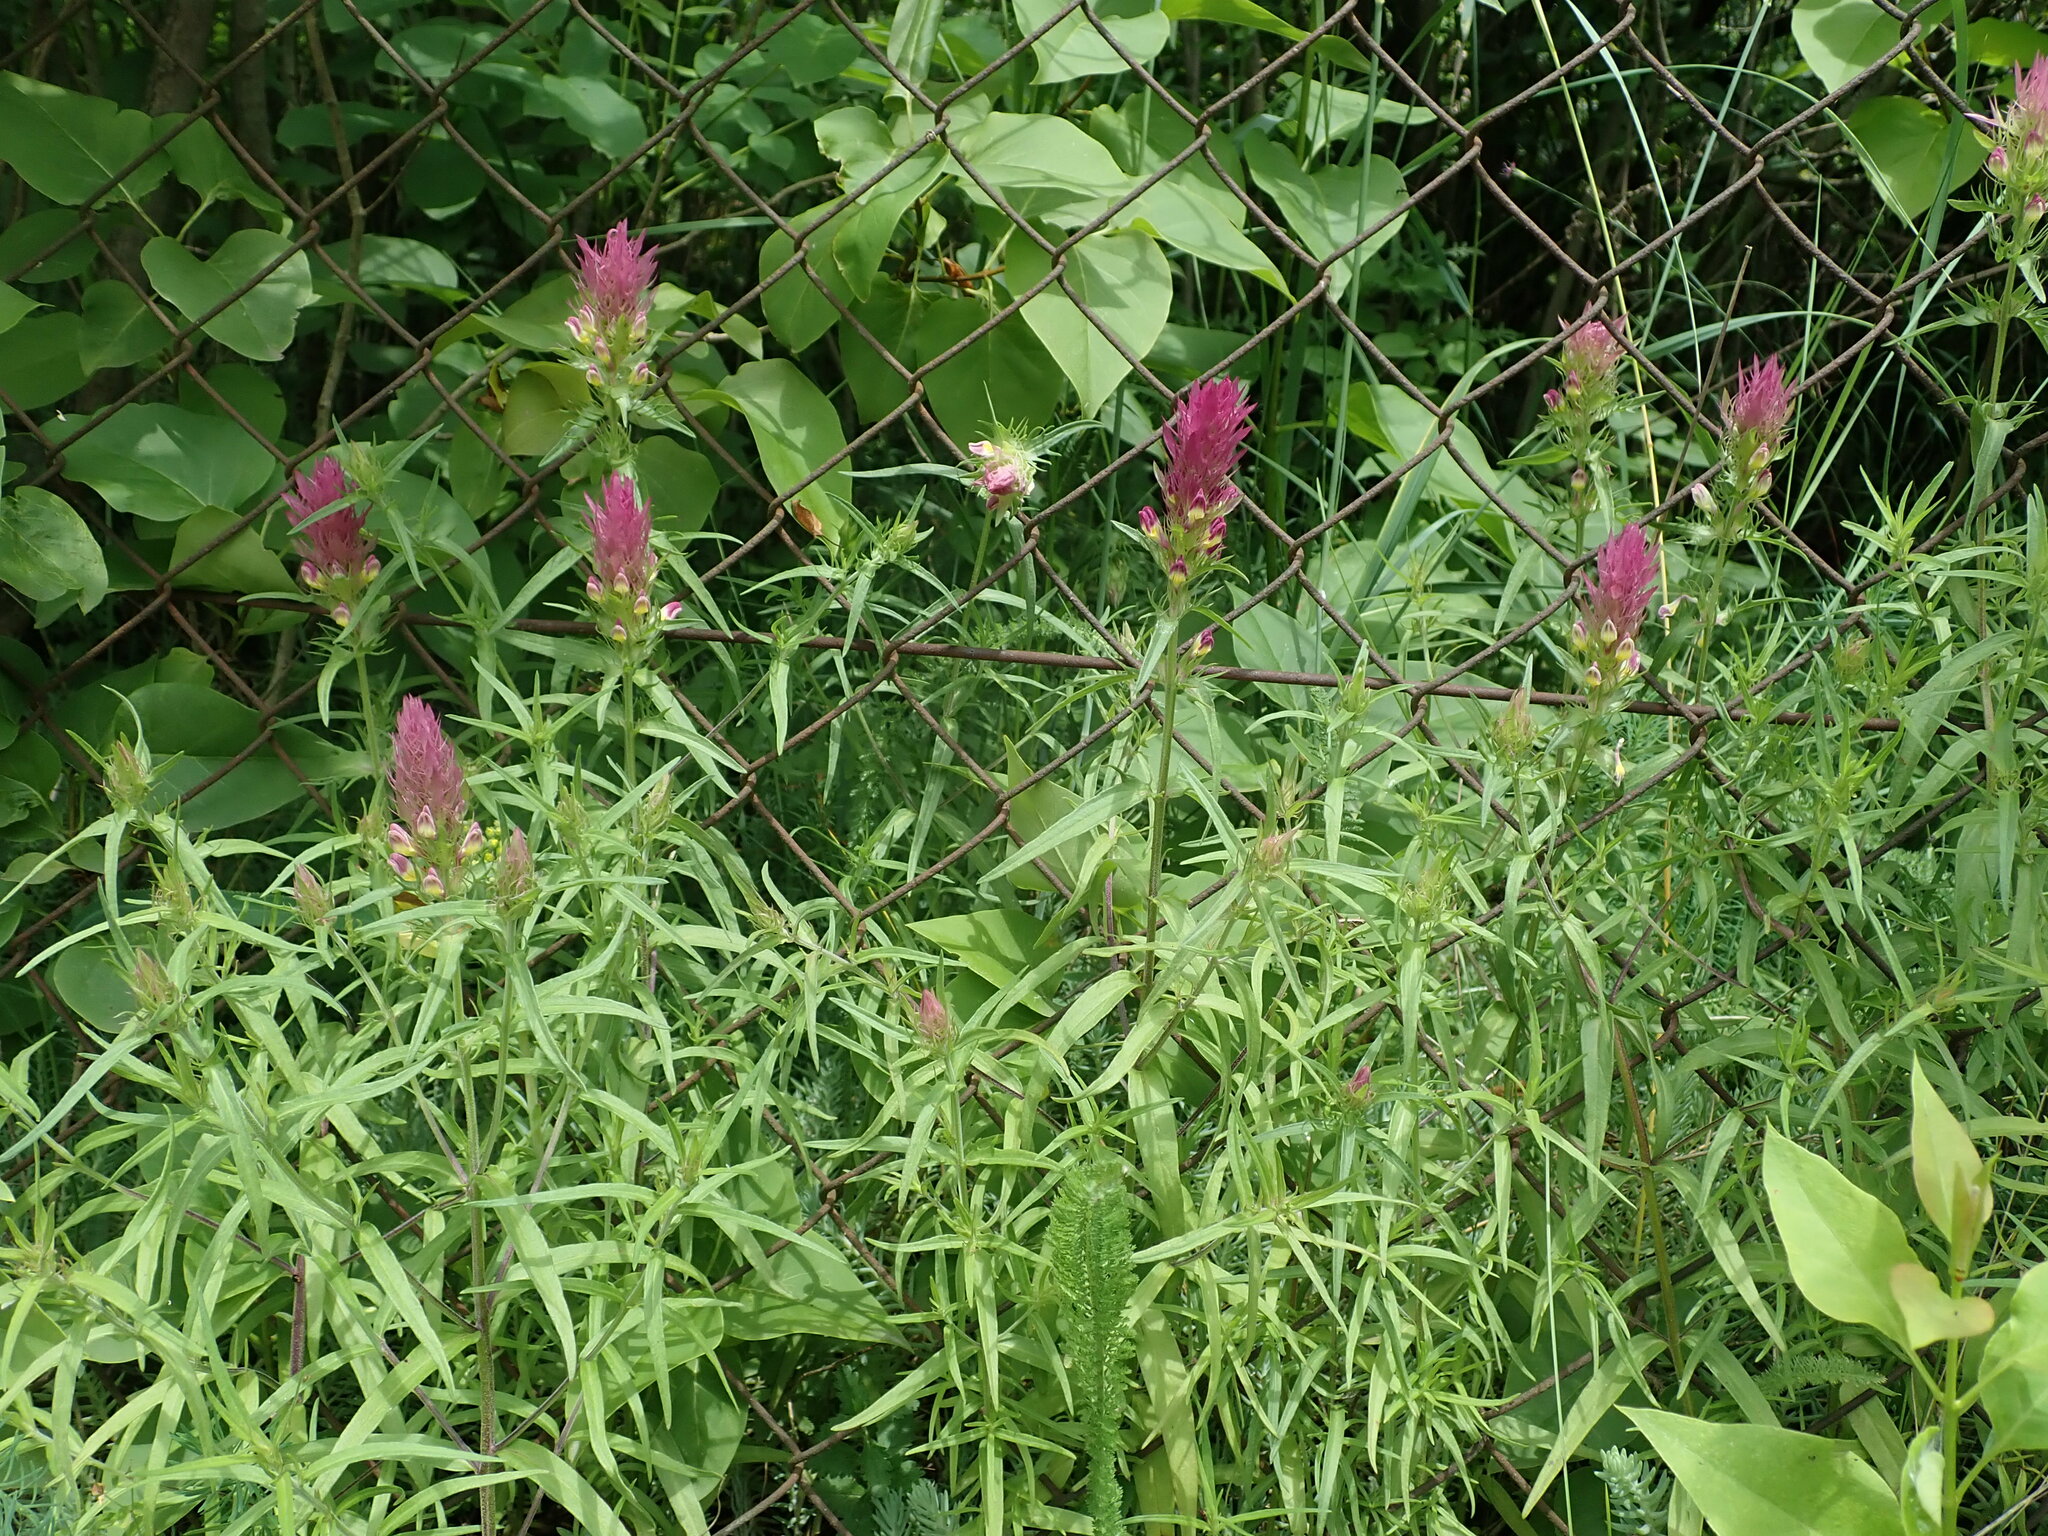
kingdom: Plantae
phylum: Tracheophyta
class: Magnoliopsida
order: Lamiales
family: Orobanchaceae
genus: Melampyrum
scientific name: Melampyrum arvense
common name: Field cow-wheat
